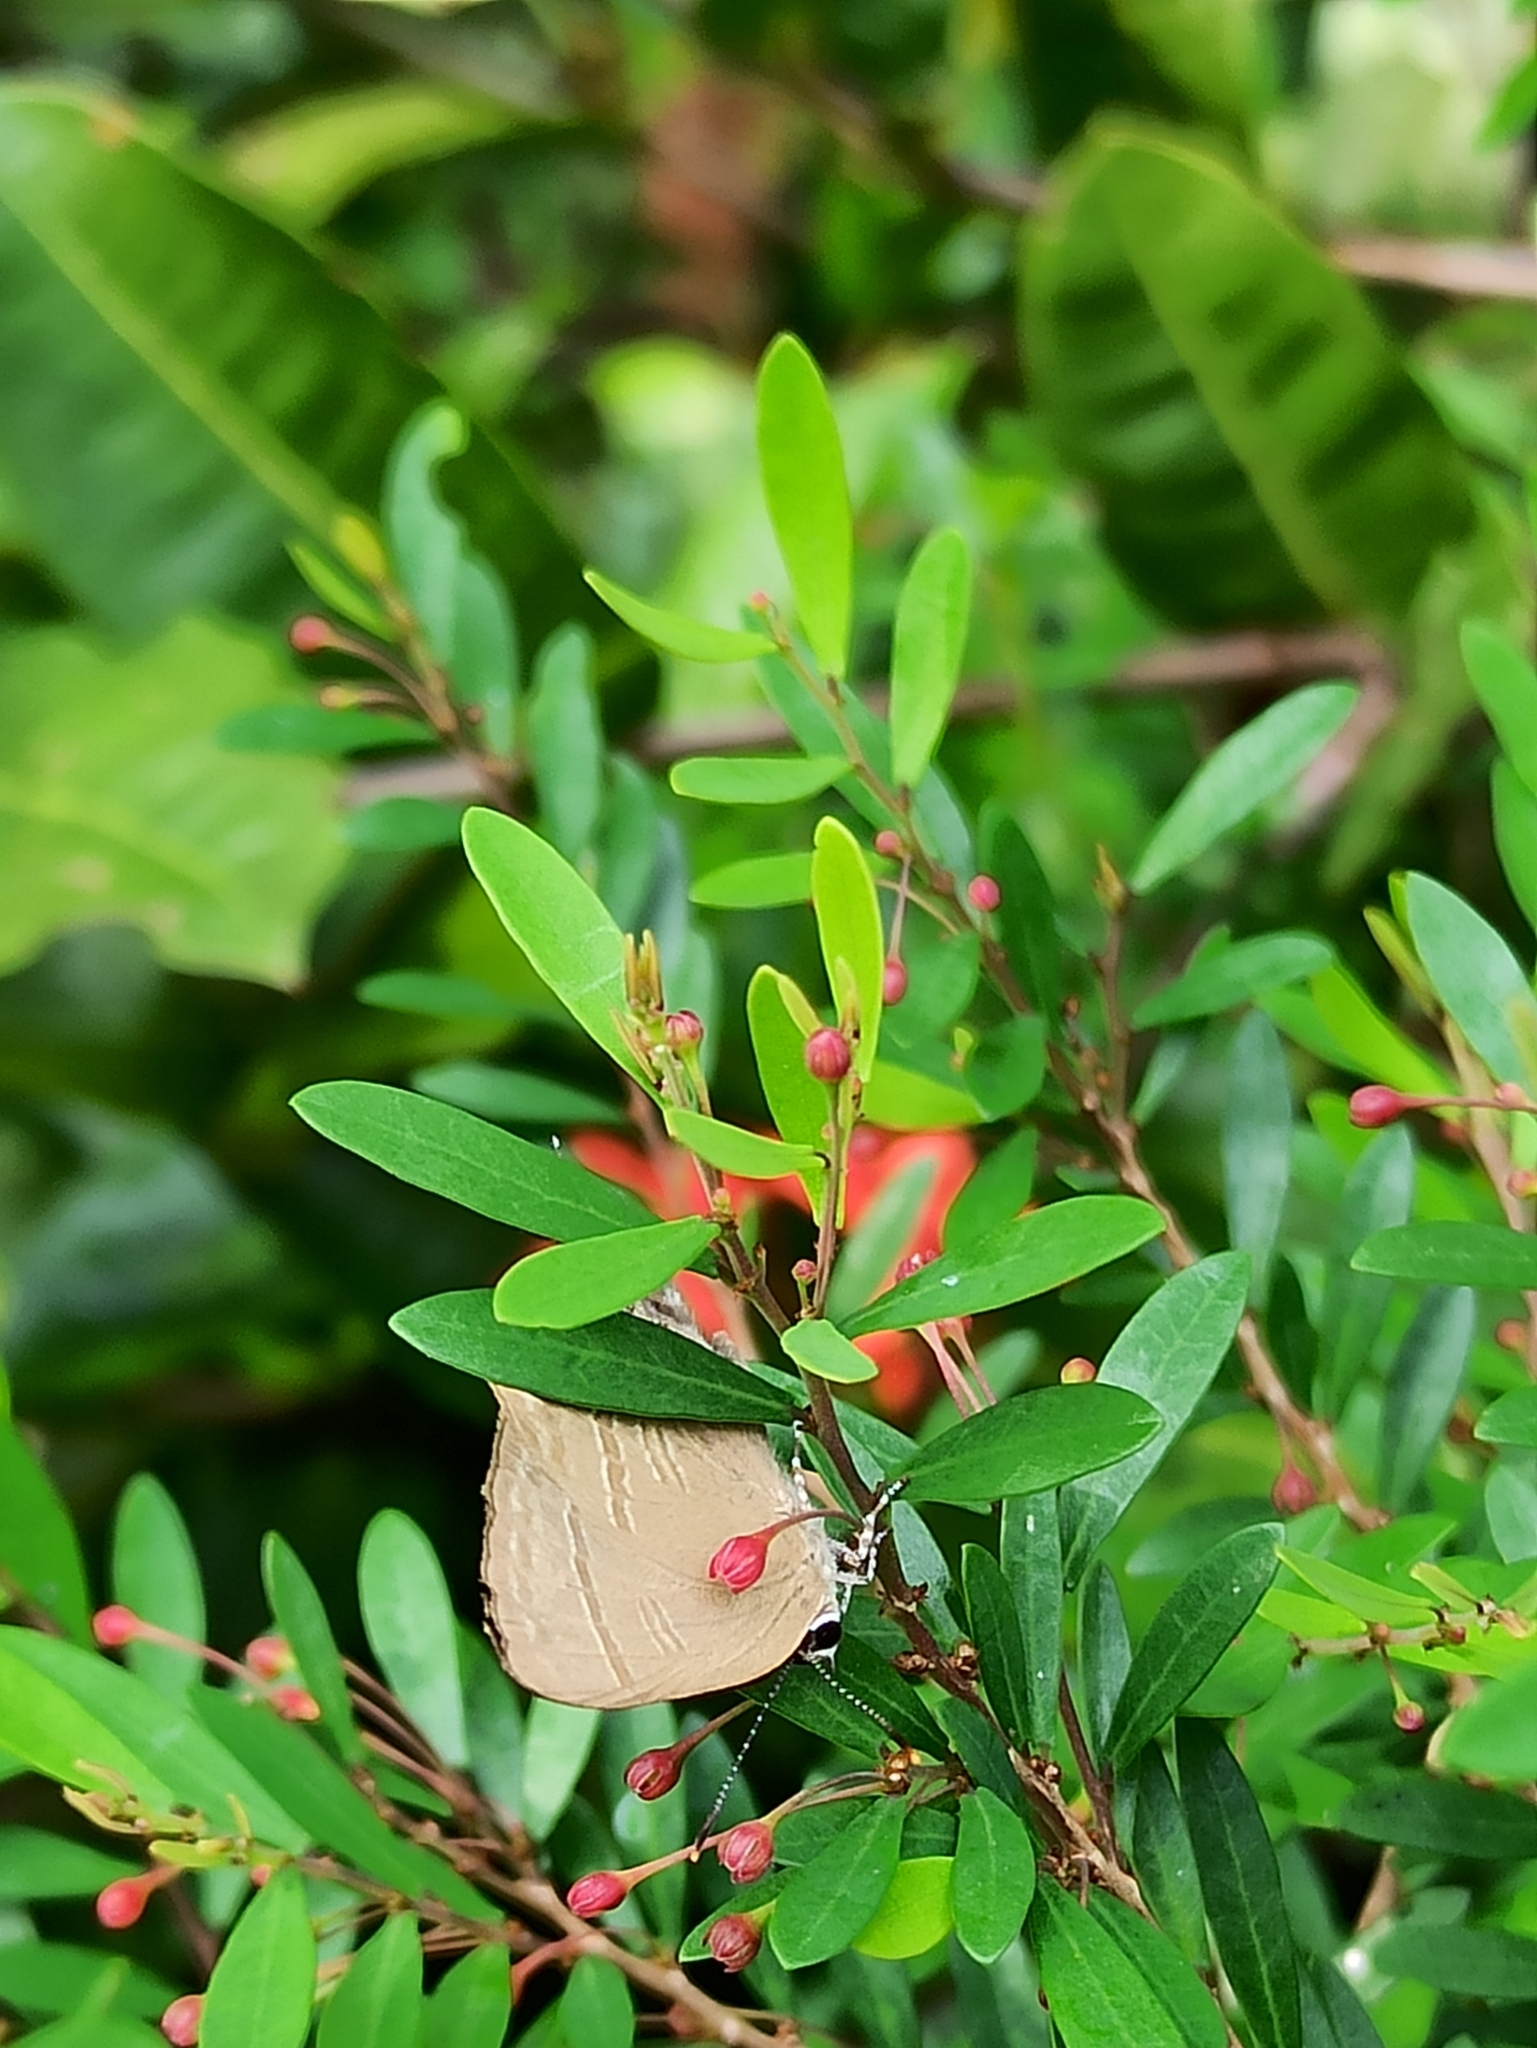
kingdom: Animalia
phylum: Arthropoda
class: Insecta
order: Lepidoptera
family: Lycaenidae
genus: Rapala
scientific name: Rapala manea
